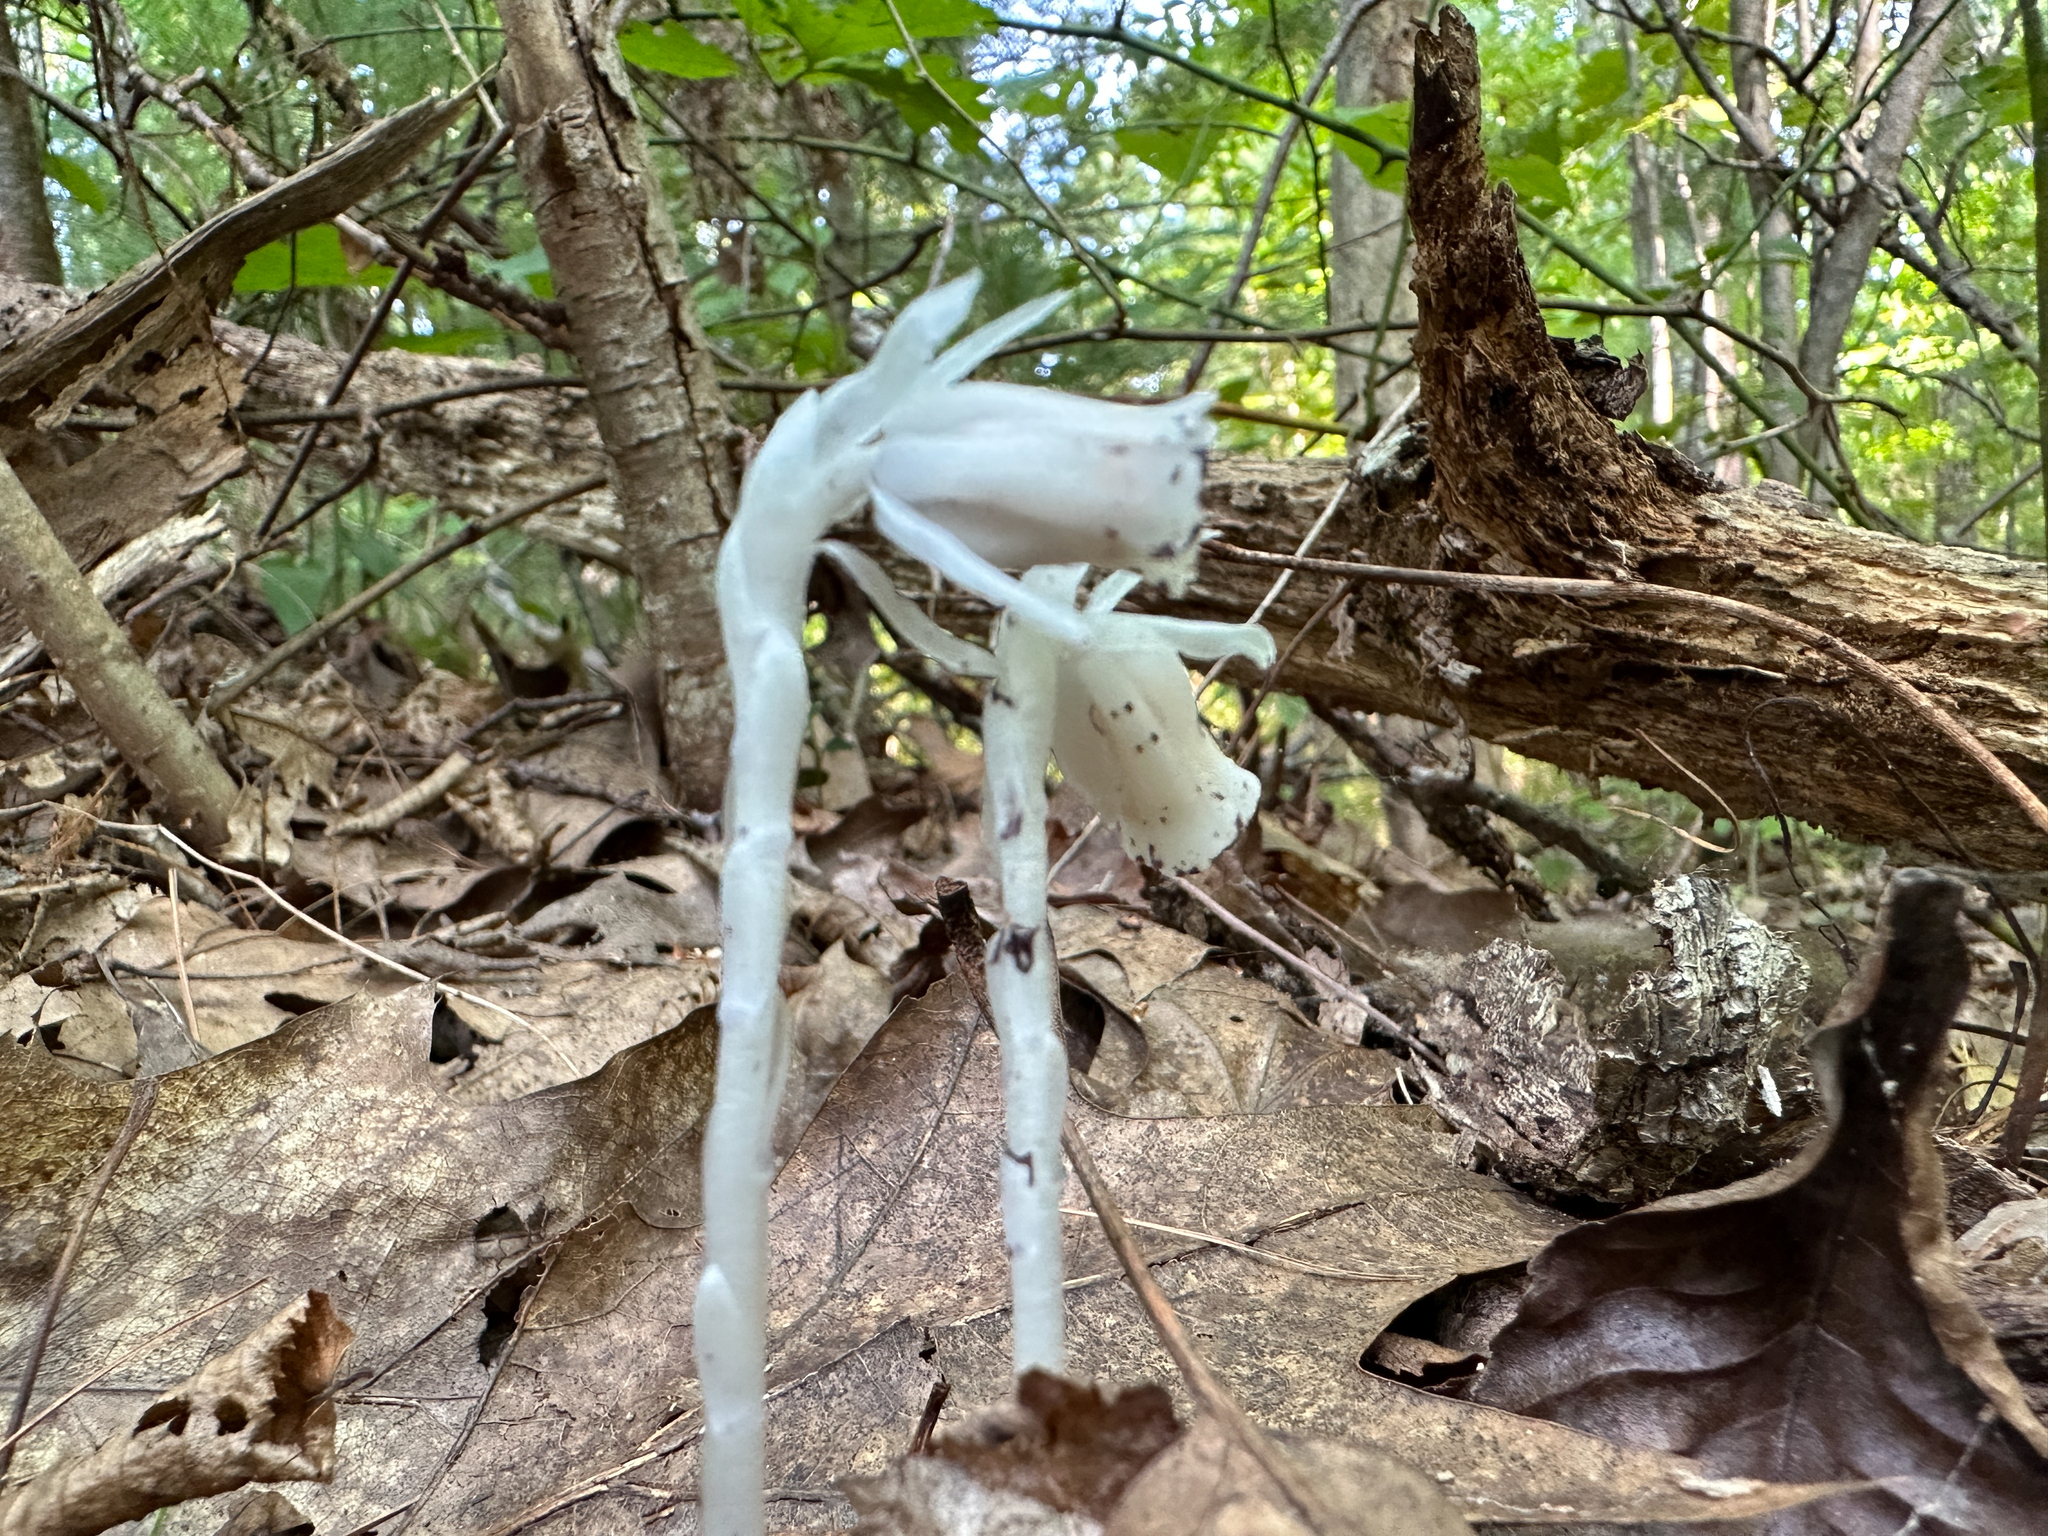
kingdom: Plantae
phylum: Tracheophyta
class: Magnoliopsida
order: Ericales
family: Ericaceae
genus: Monotropa
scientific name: Monotropa uniflora
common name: Convulsion root
